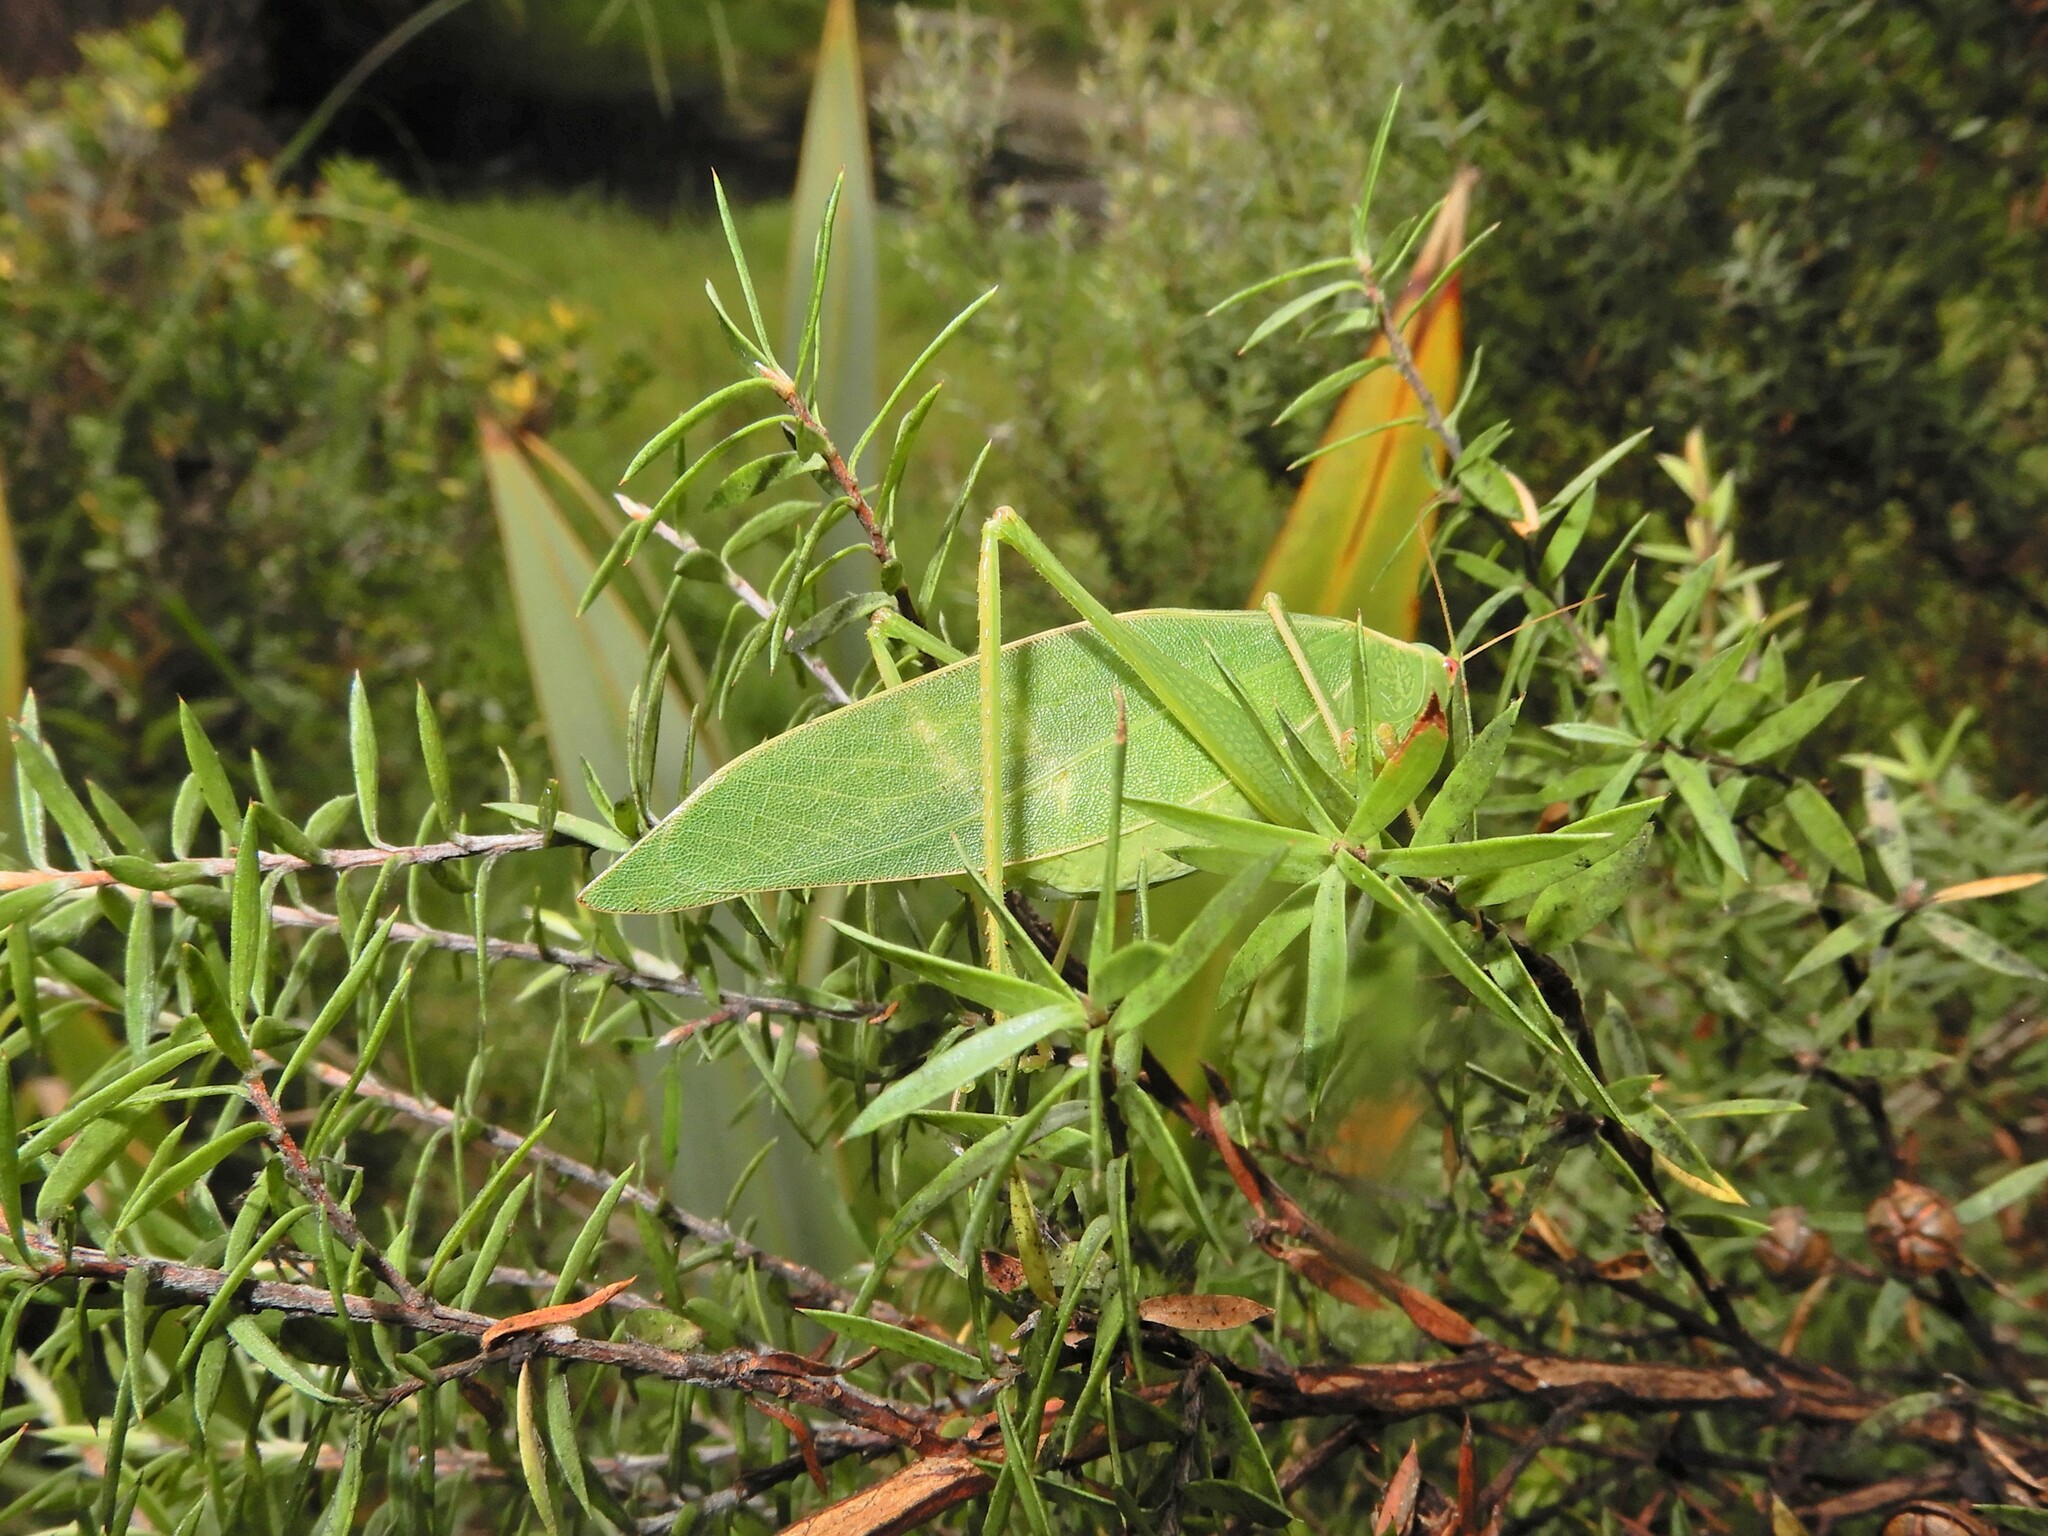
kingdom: Animalia
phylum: Arthropoda
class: Insecta
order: Orthoptera
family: Tettigoniidae
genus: Caedicia
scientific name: Caedicia simplex
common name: Common garden katydid
